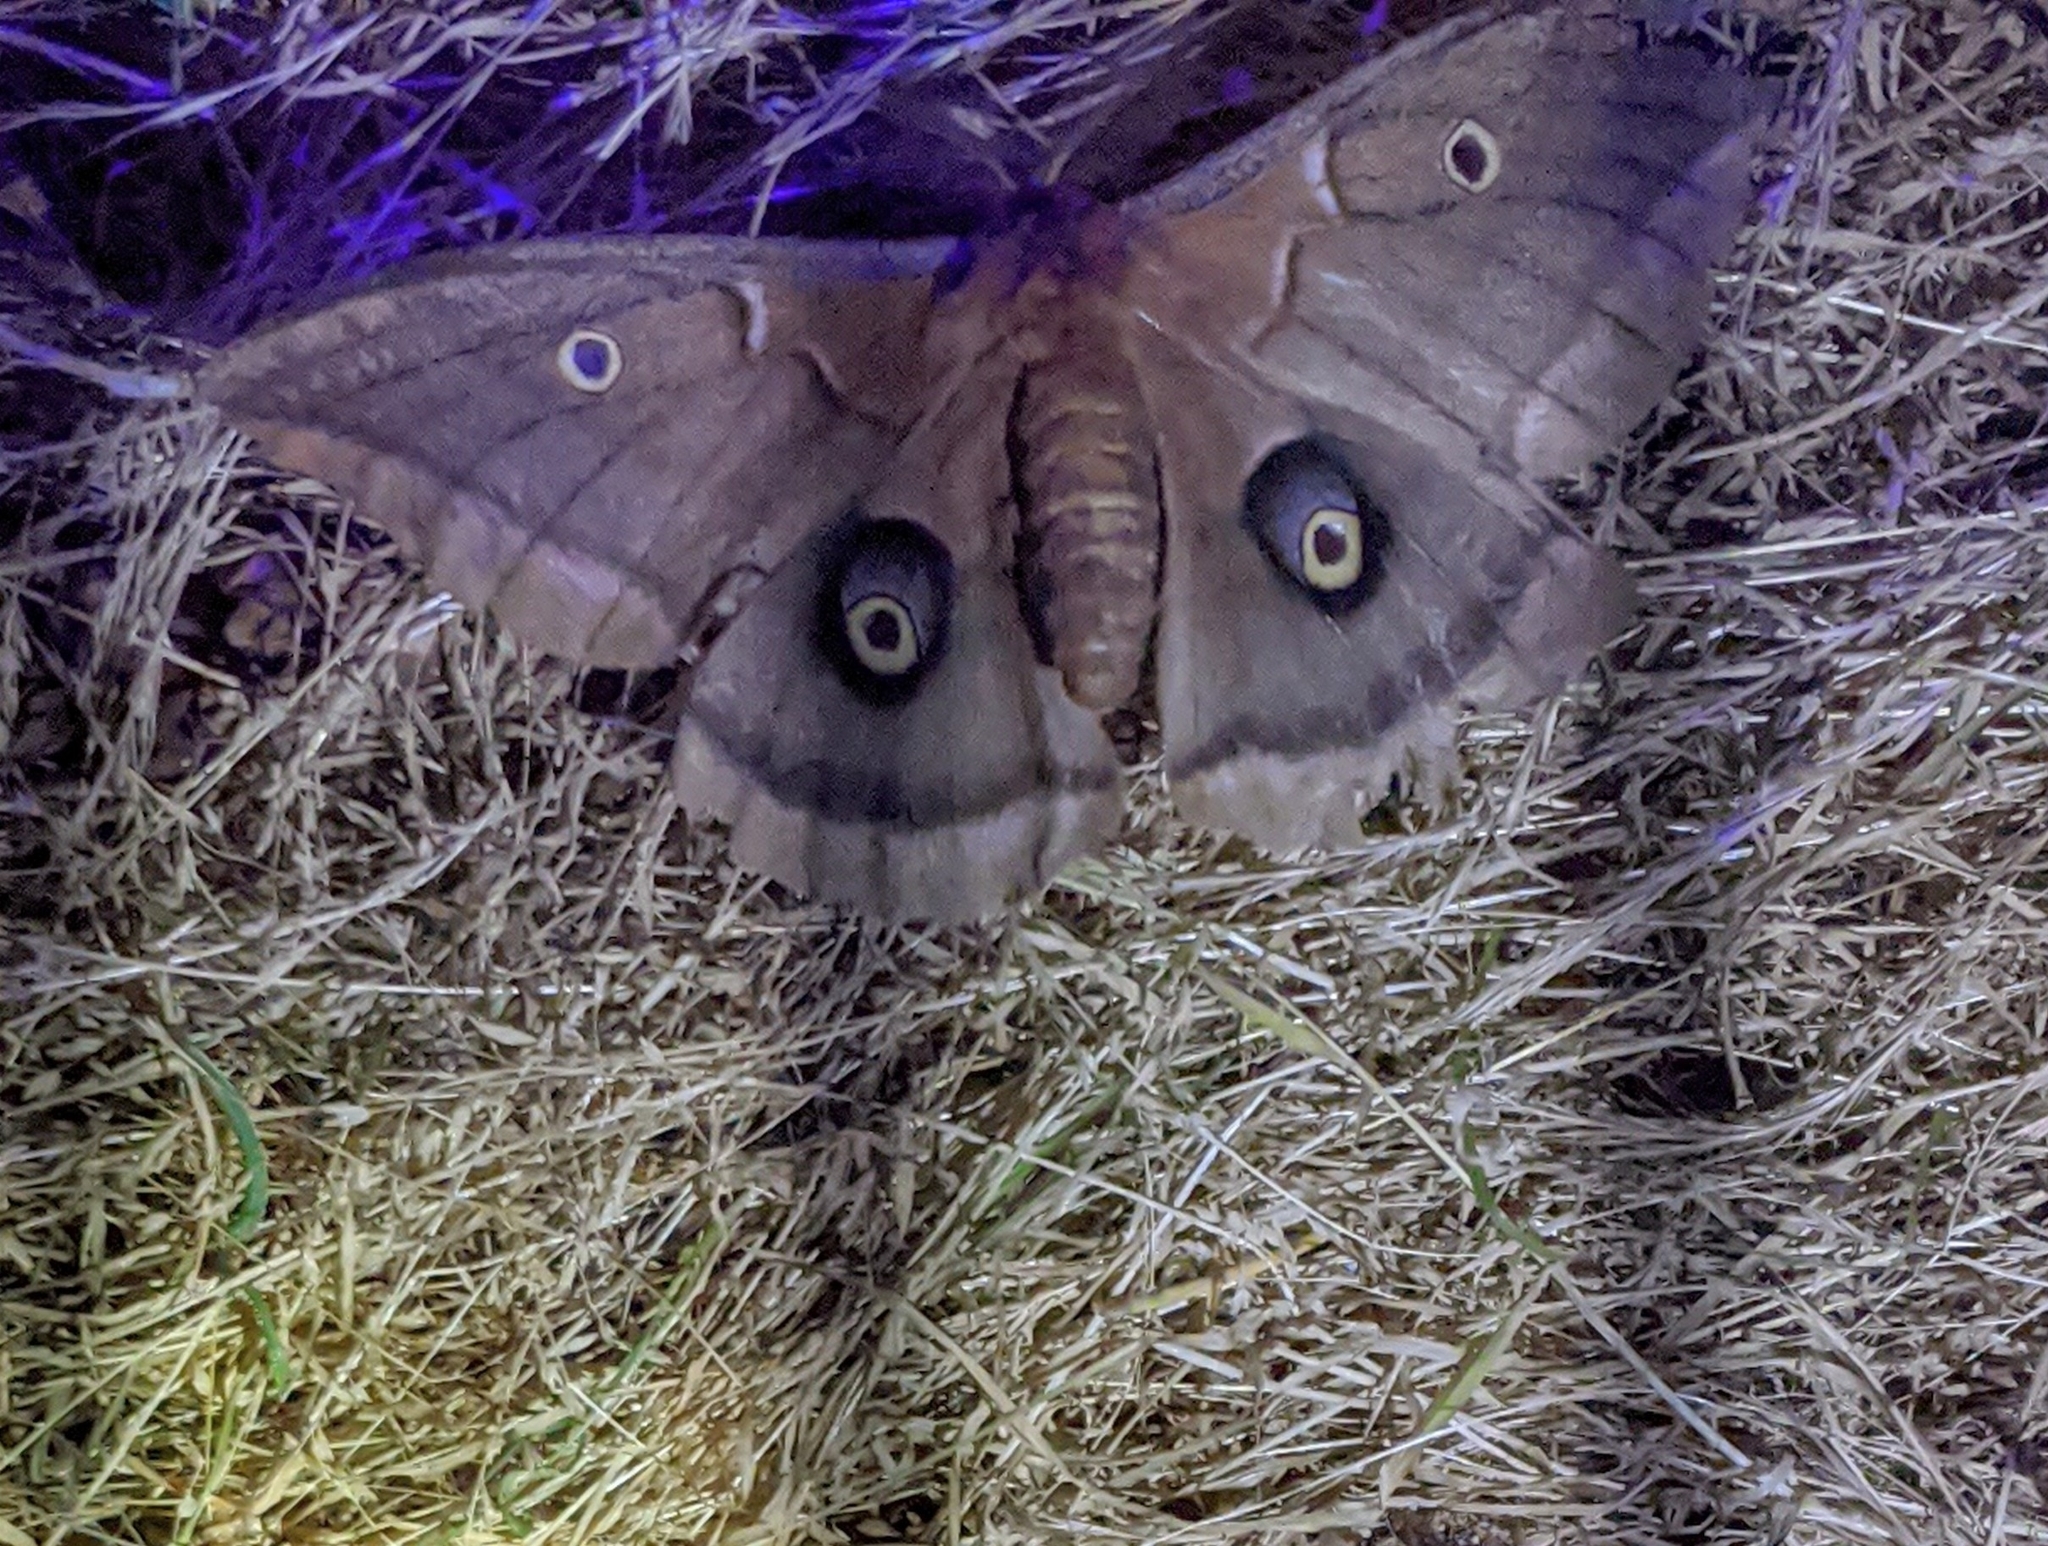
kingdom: Animalia
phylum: Arthropoda
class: Insecta
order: Lepidoptera
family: Saturniidae
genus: Antheraea
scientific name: Antheraea polyphemus
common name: Polyphemus moth
